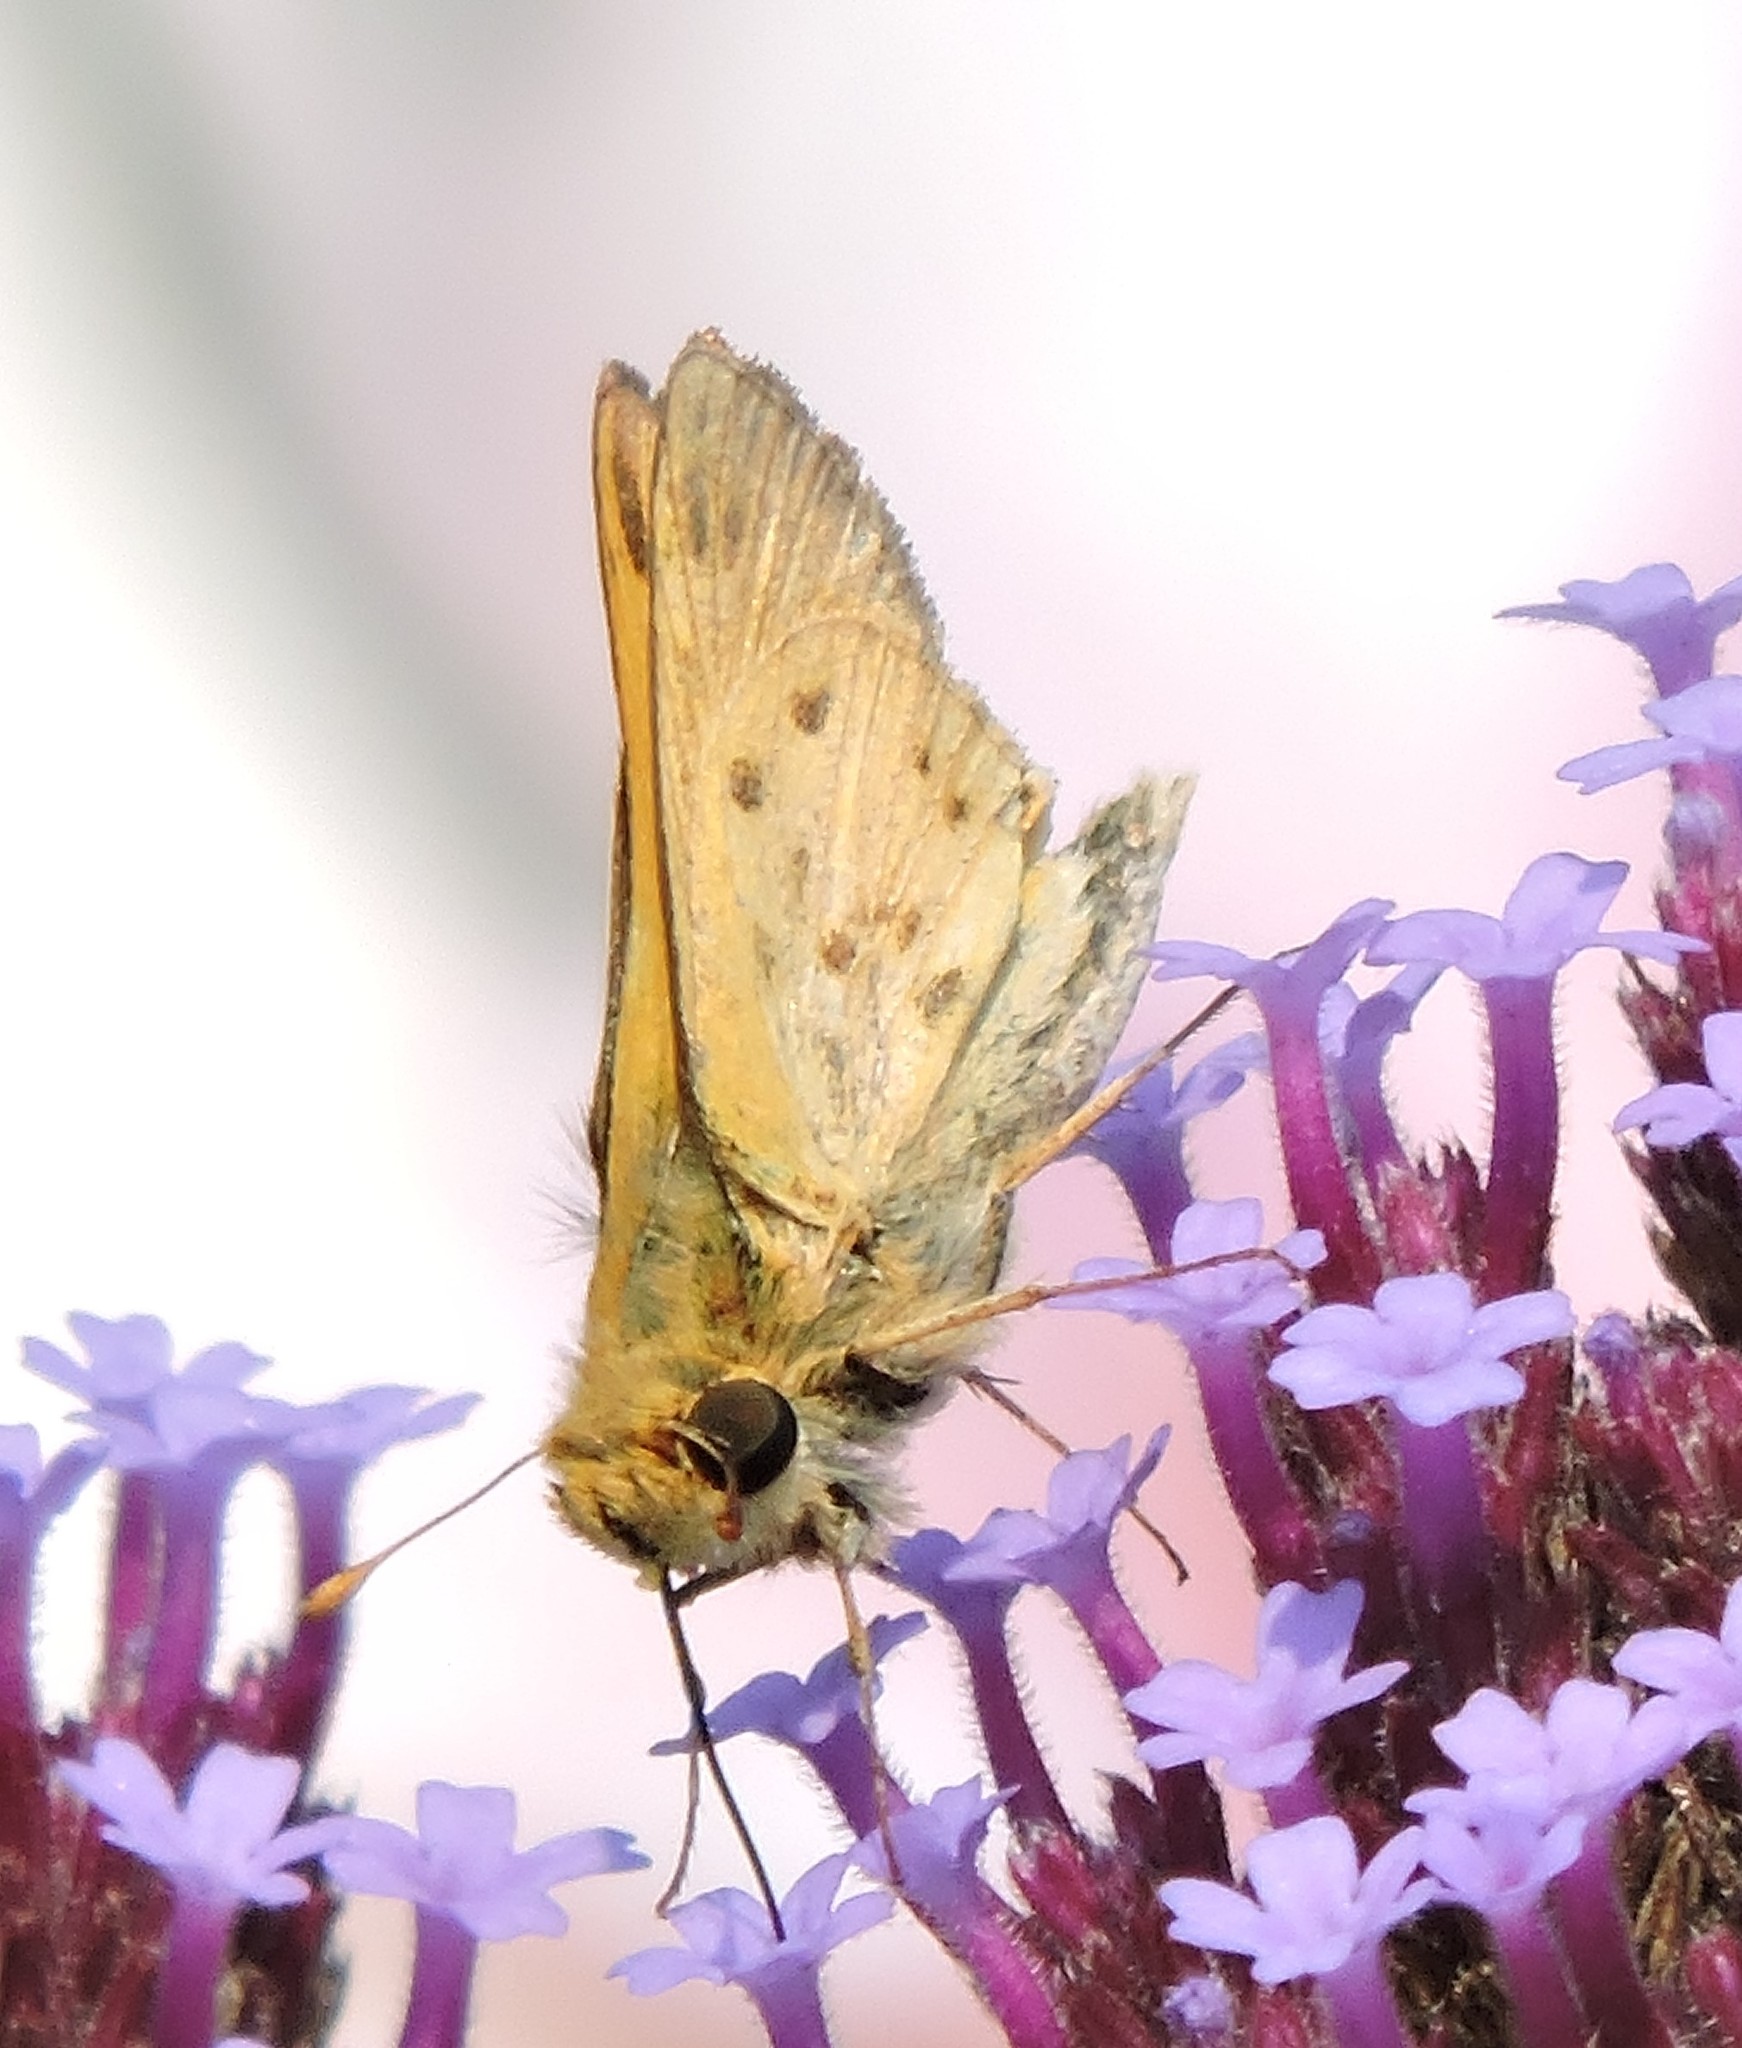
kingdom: Animalia
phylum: Arthropoda
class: Insecta
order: Lepidoptera
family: Hesperiidae
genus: Hylephila
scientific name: Hylephila phyleus
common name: Fiery skipper
